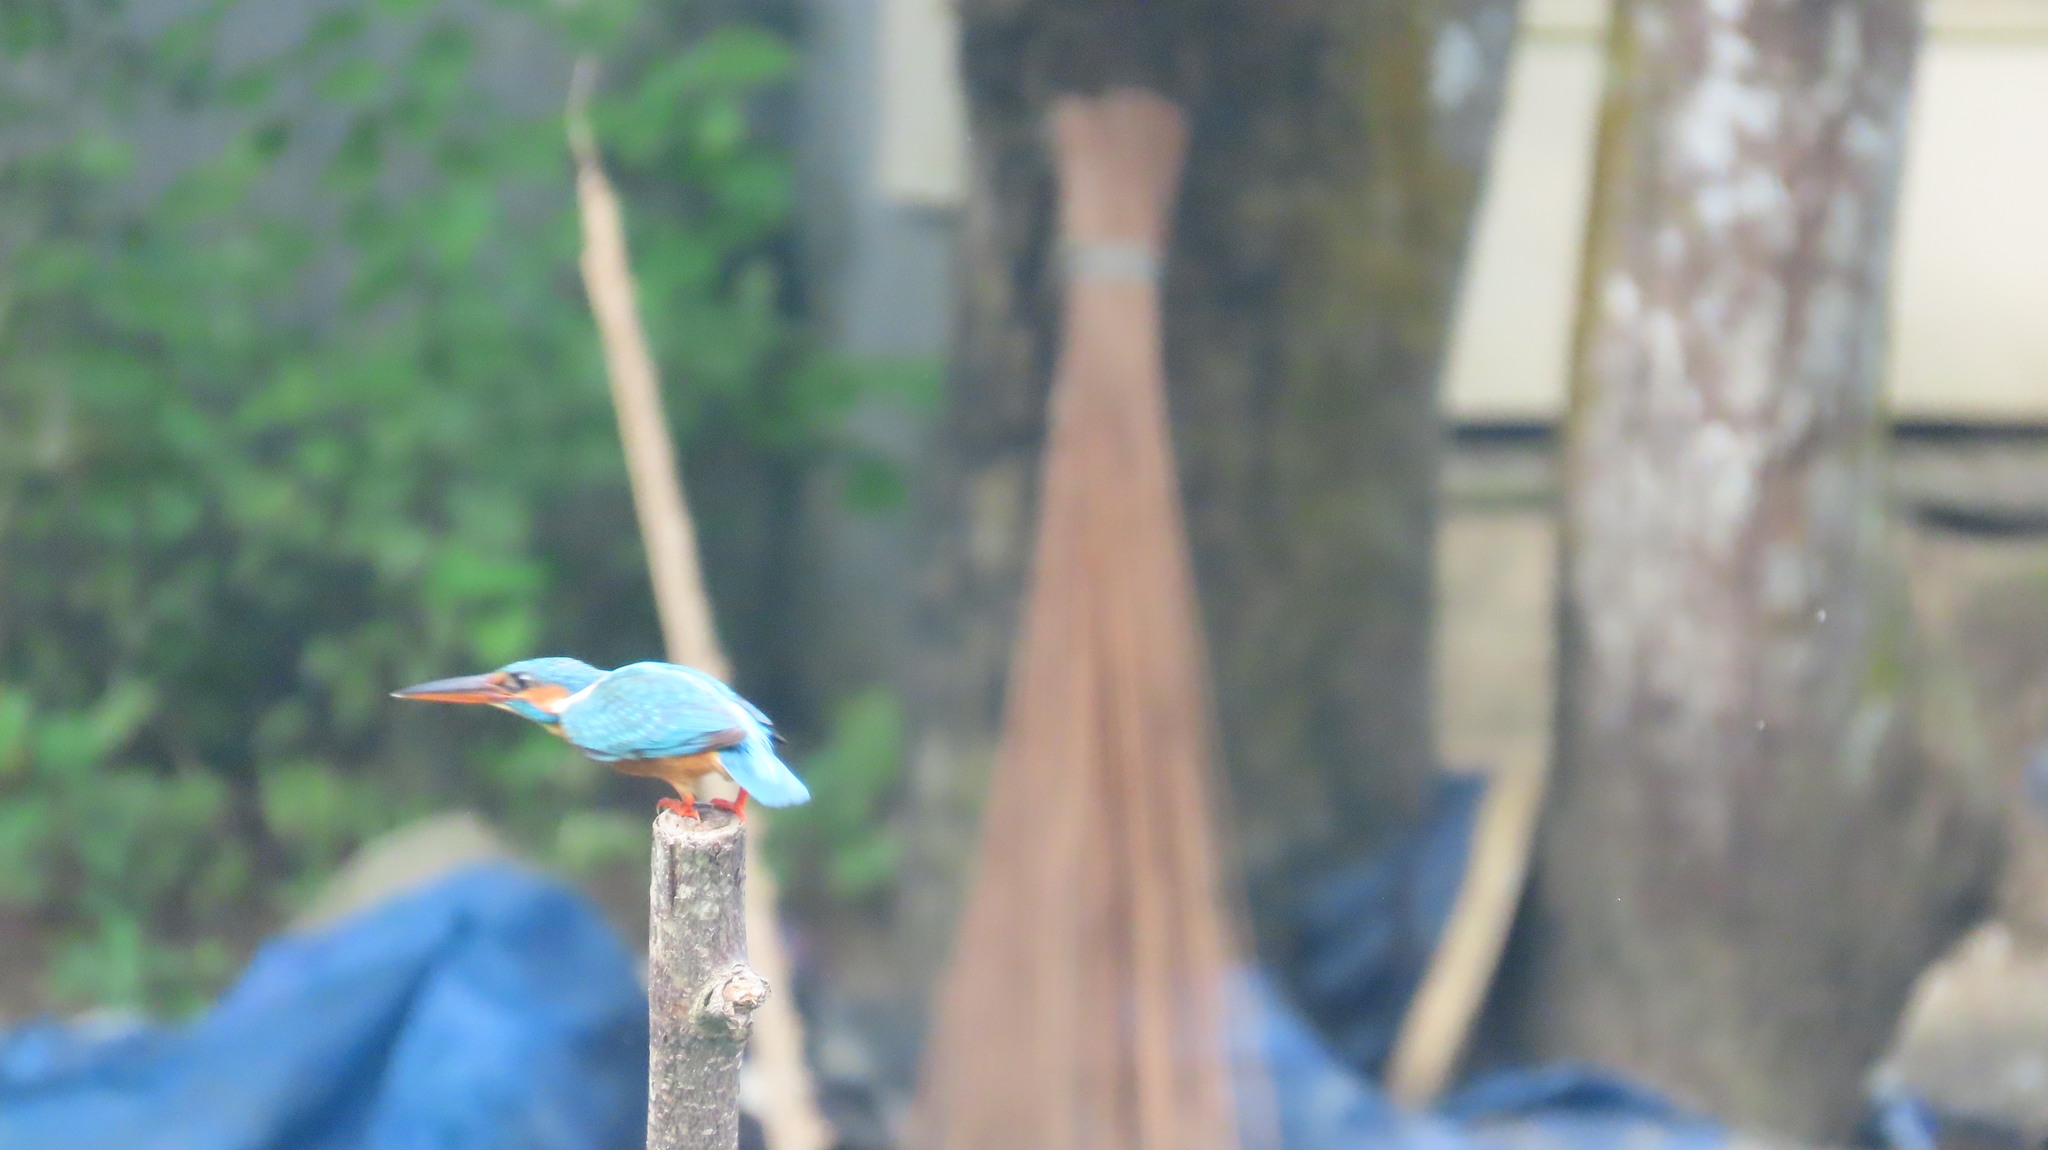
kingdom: Animalia
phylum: Chordata
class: Aves
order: Coraciiformes
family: Alcedinidae
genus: Alcedo
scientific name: Alcedo atthis
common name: Common kingfisher
